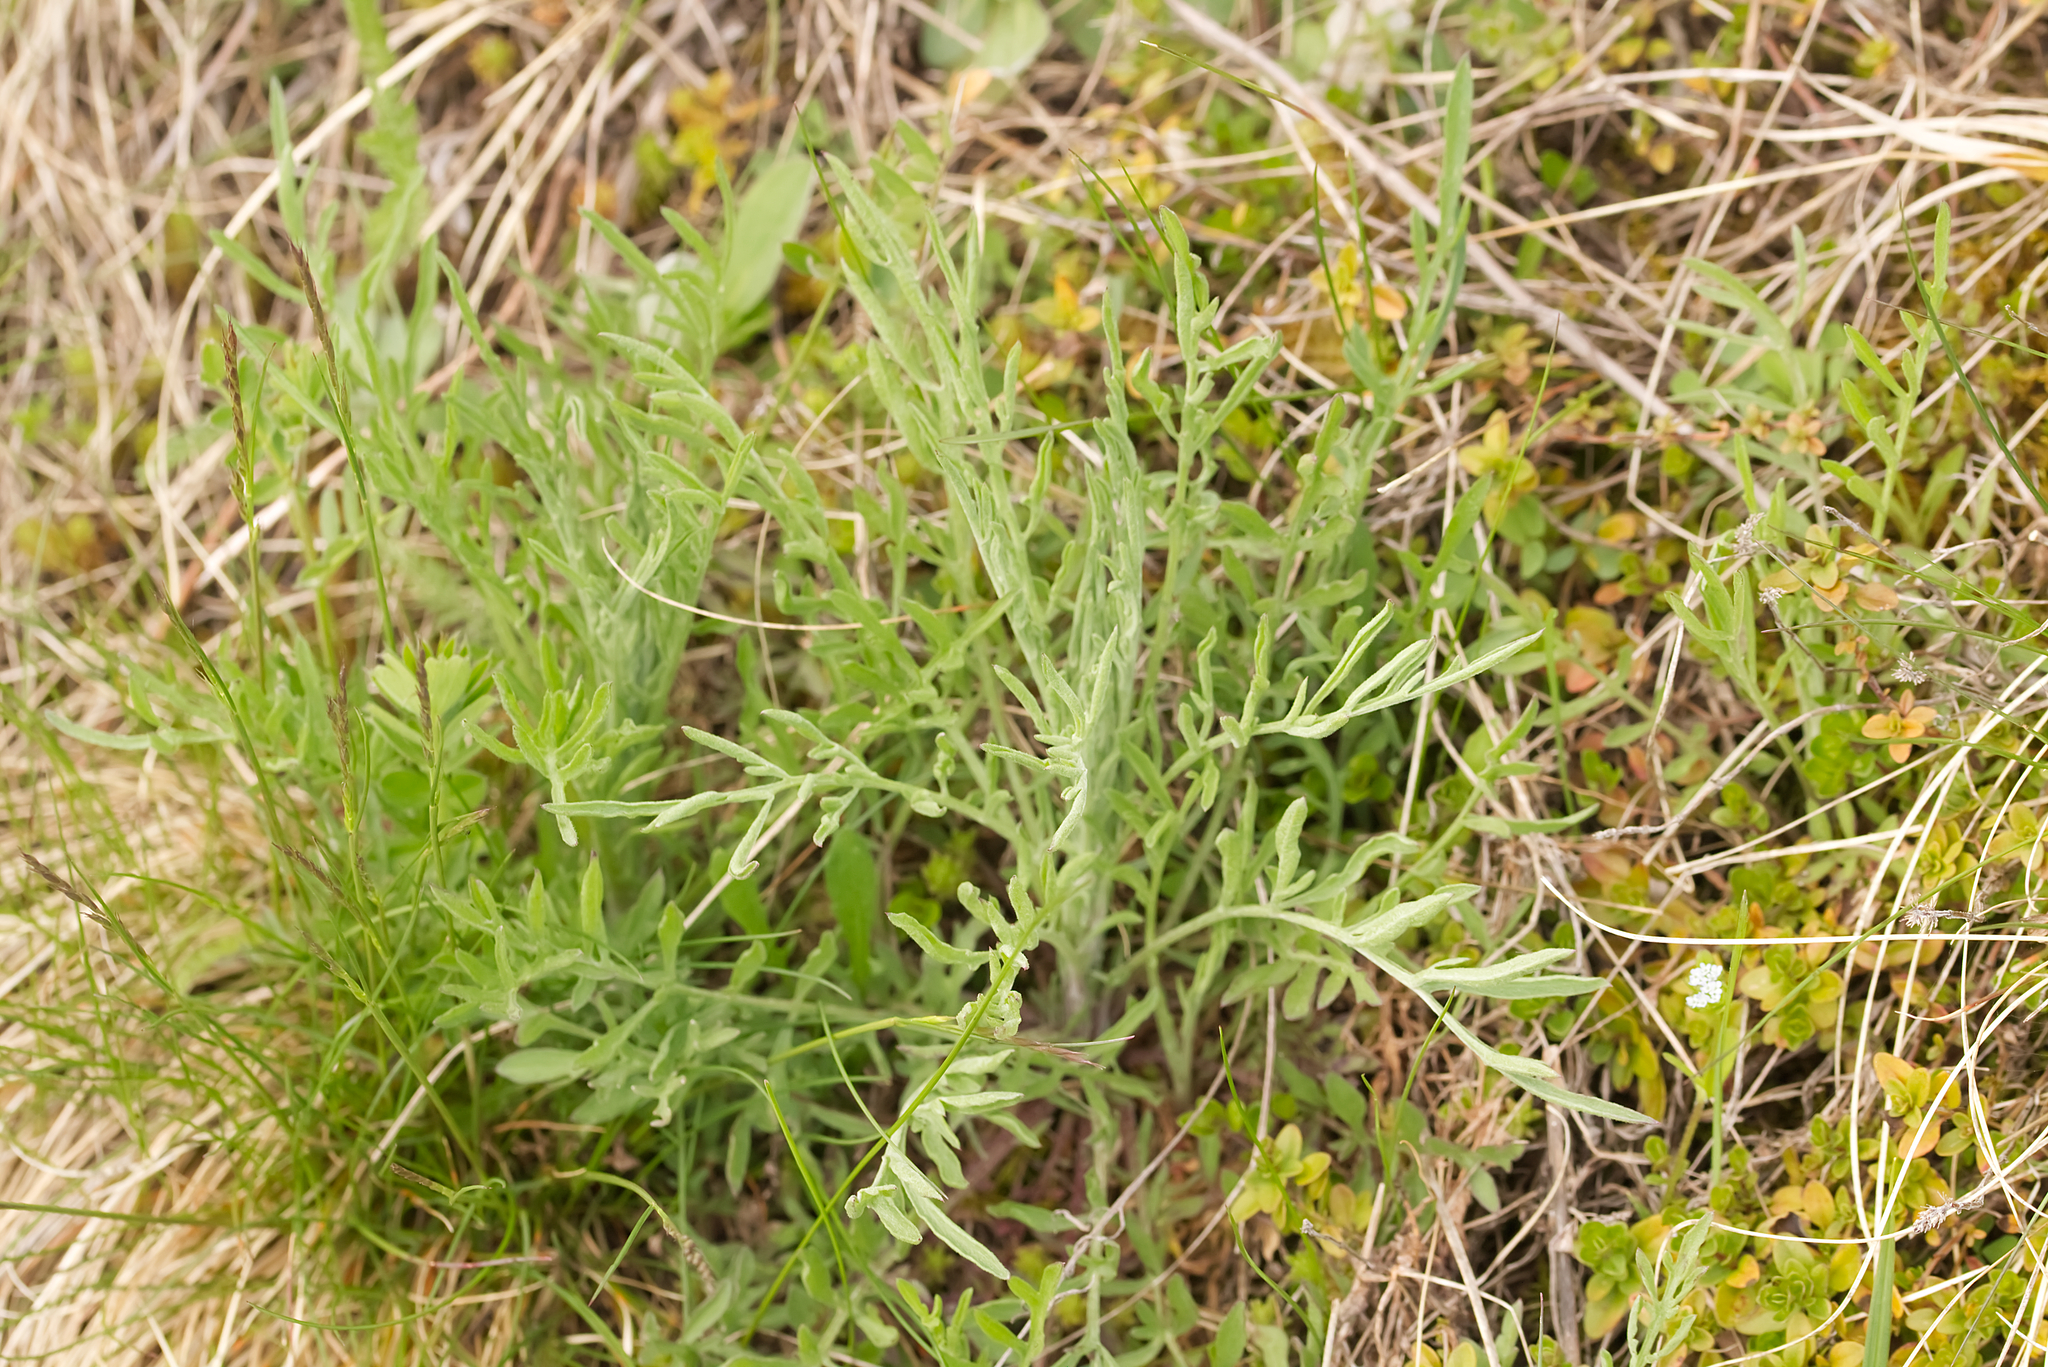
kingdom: Plantae
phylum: Tracheophyta
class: Magnoliopsida
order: Asterales
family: Asteraceae
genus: Centaurea
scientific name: Centaurea stoebe
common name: Spotted knapweed
